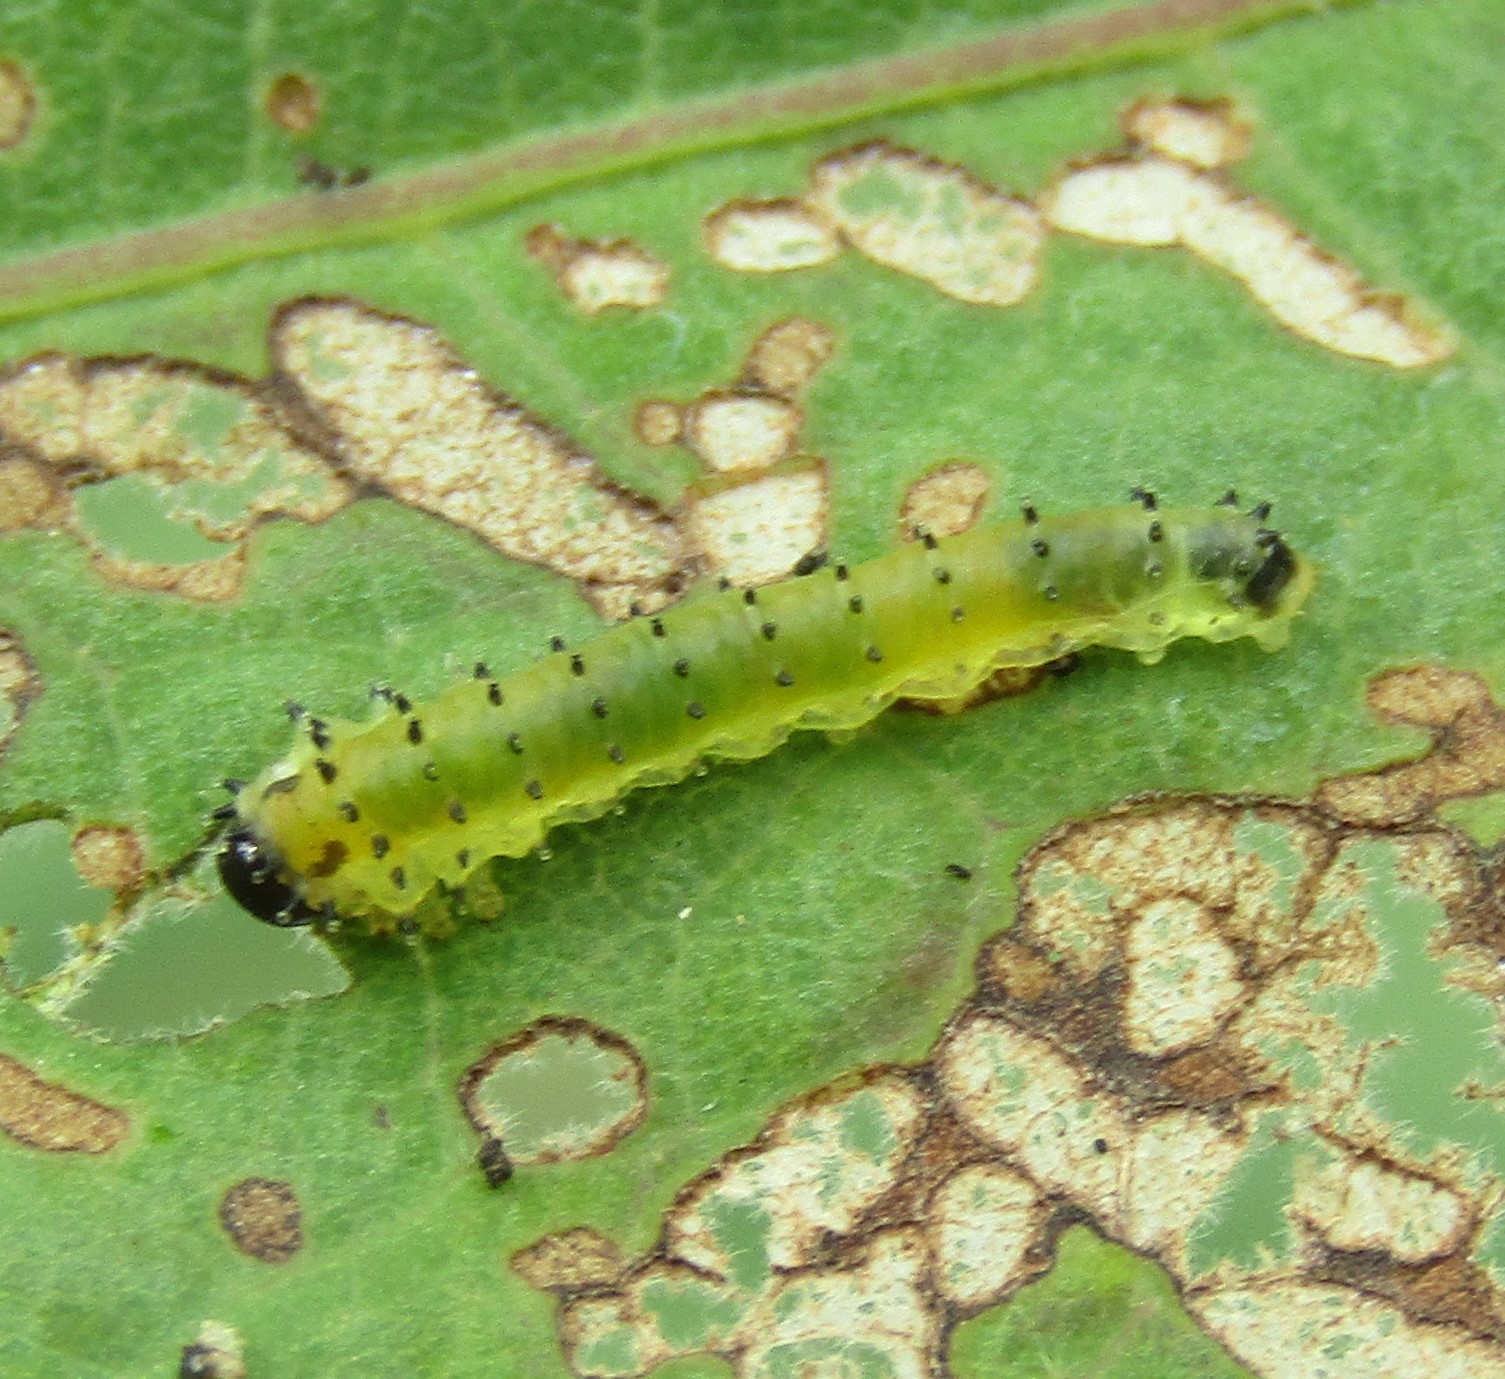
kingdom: Animalia
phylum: Arthropoda
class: Insecta
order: Hymenoptera
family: Argidae
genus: Atomacera
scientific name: Atomacera
